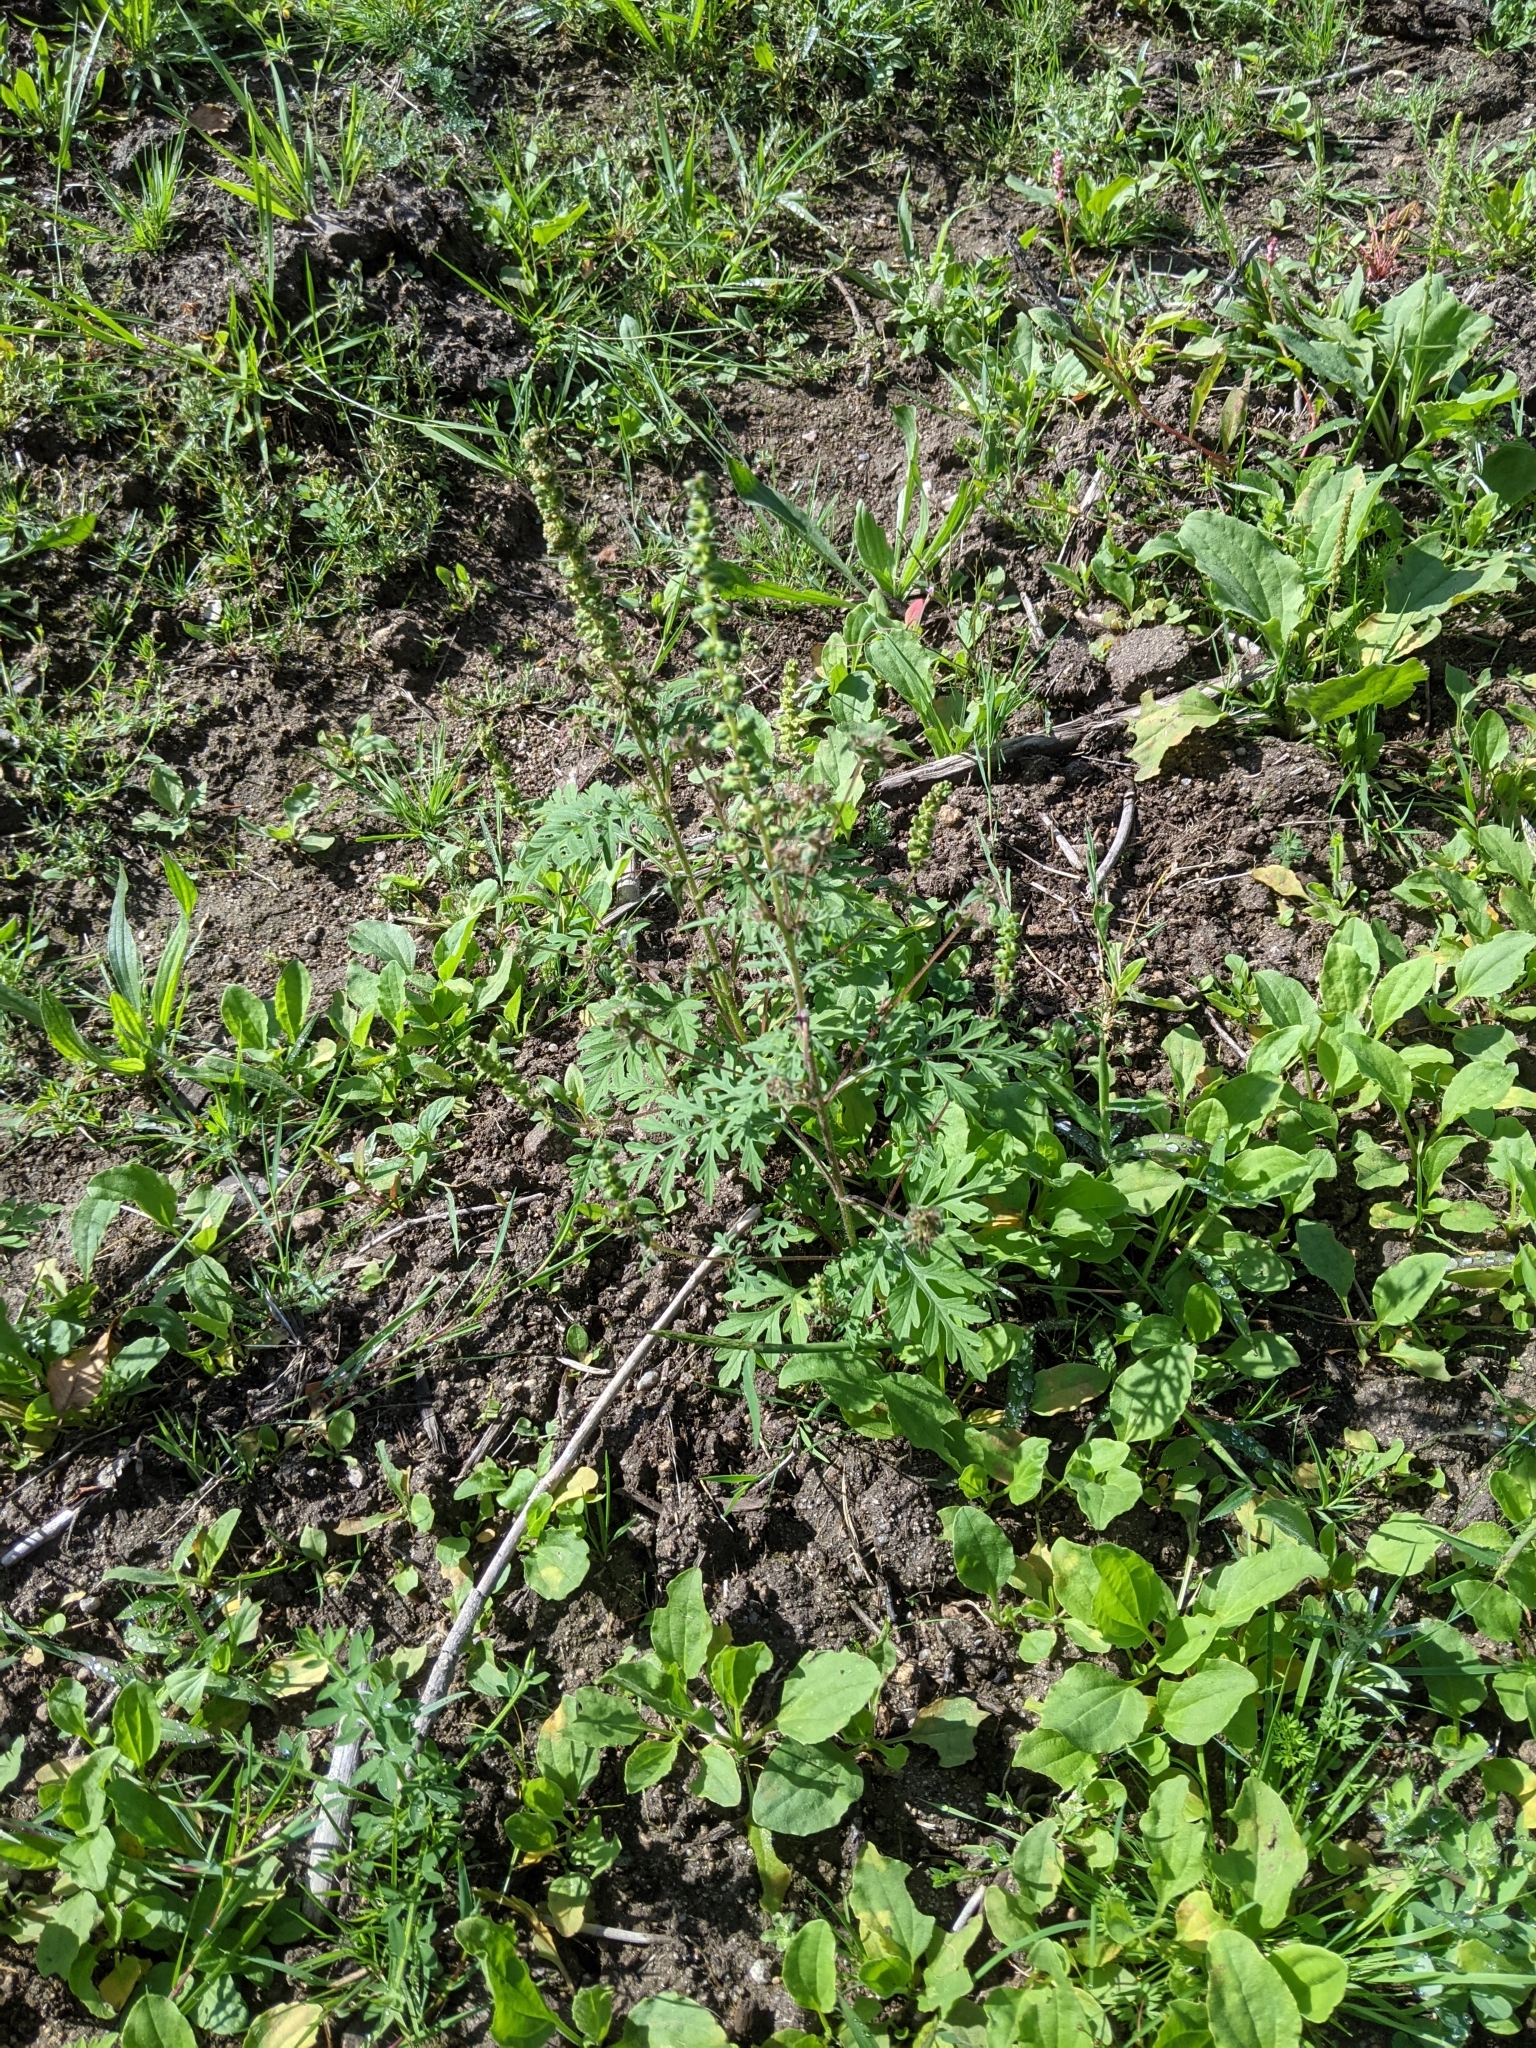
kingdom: Plantae
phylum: Tracheophyta
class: Magnoliopsida
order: Asterales
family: Asteraceae
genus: Ambrosia
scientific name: Ambrosia artemisiifolia
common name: Annual ragweed
